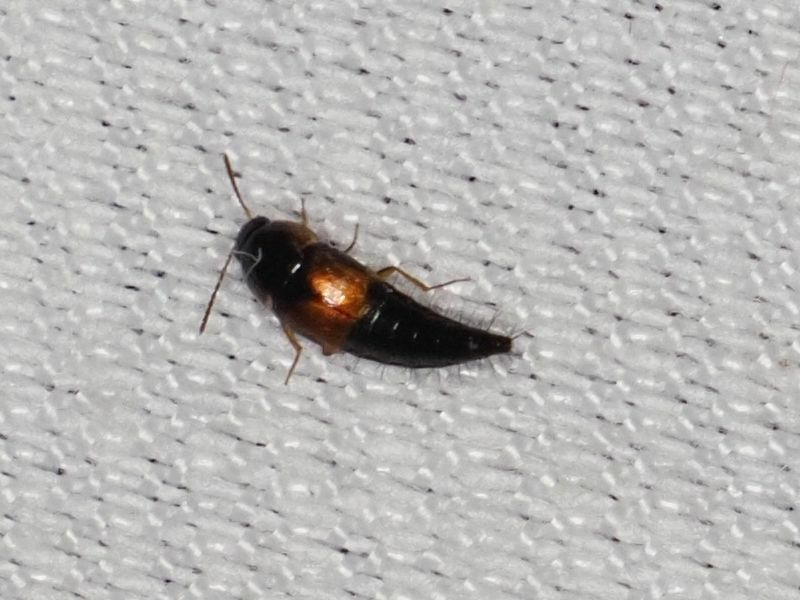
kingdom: Animalia
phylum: Arthropoda
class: Insecta
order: Coleoptera
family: Staphylinidae
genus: Tachyporus
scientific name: Tachyporus hypnorum
